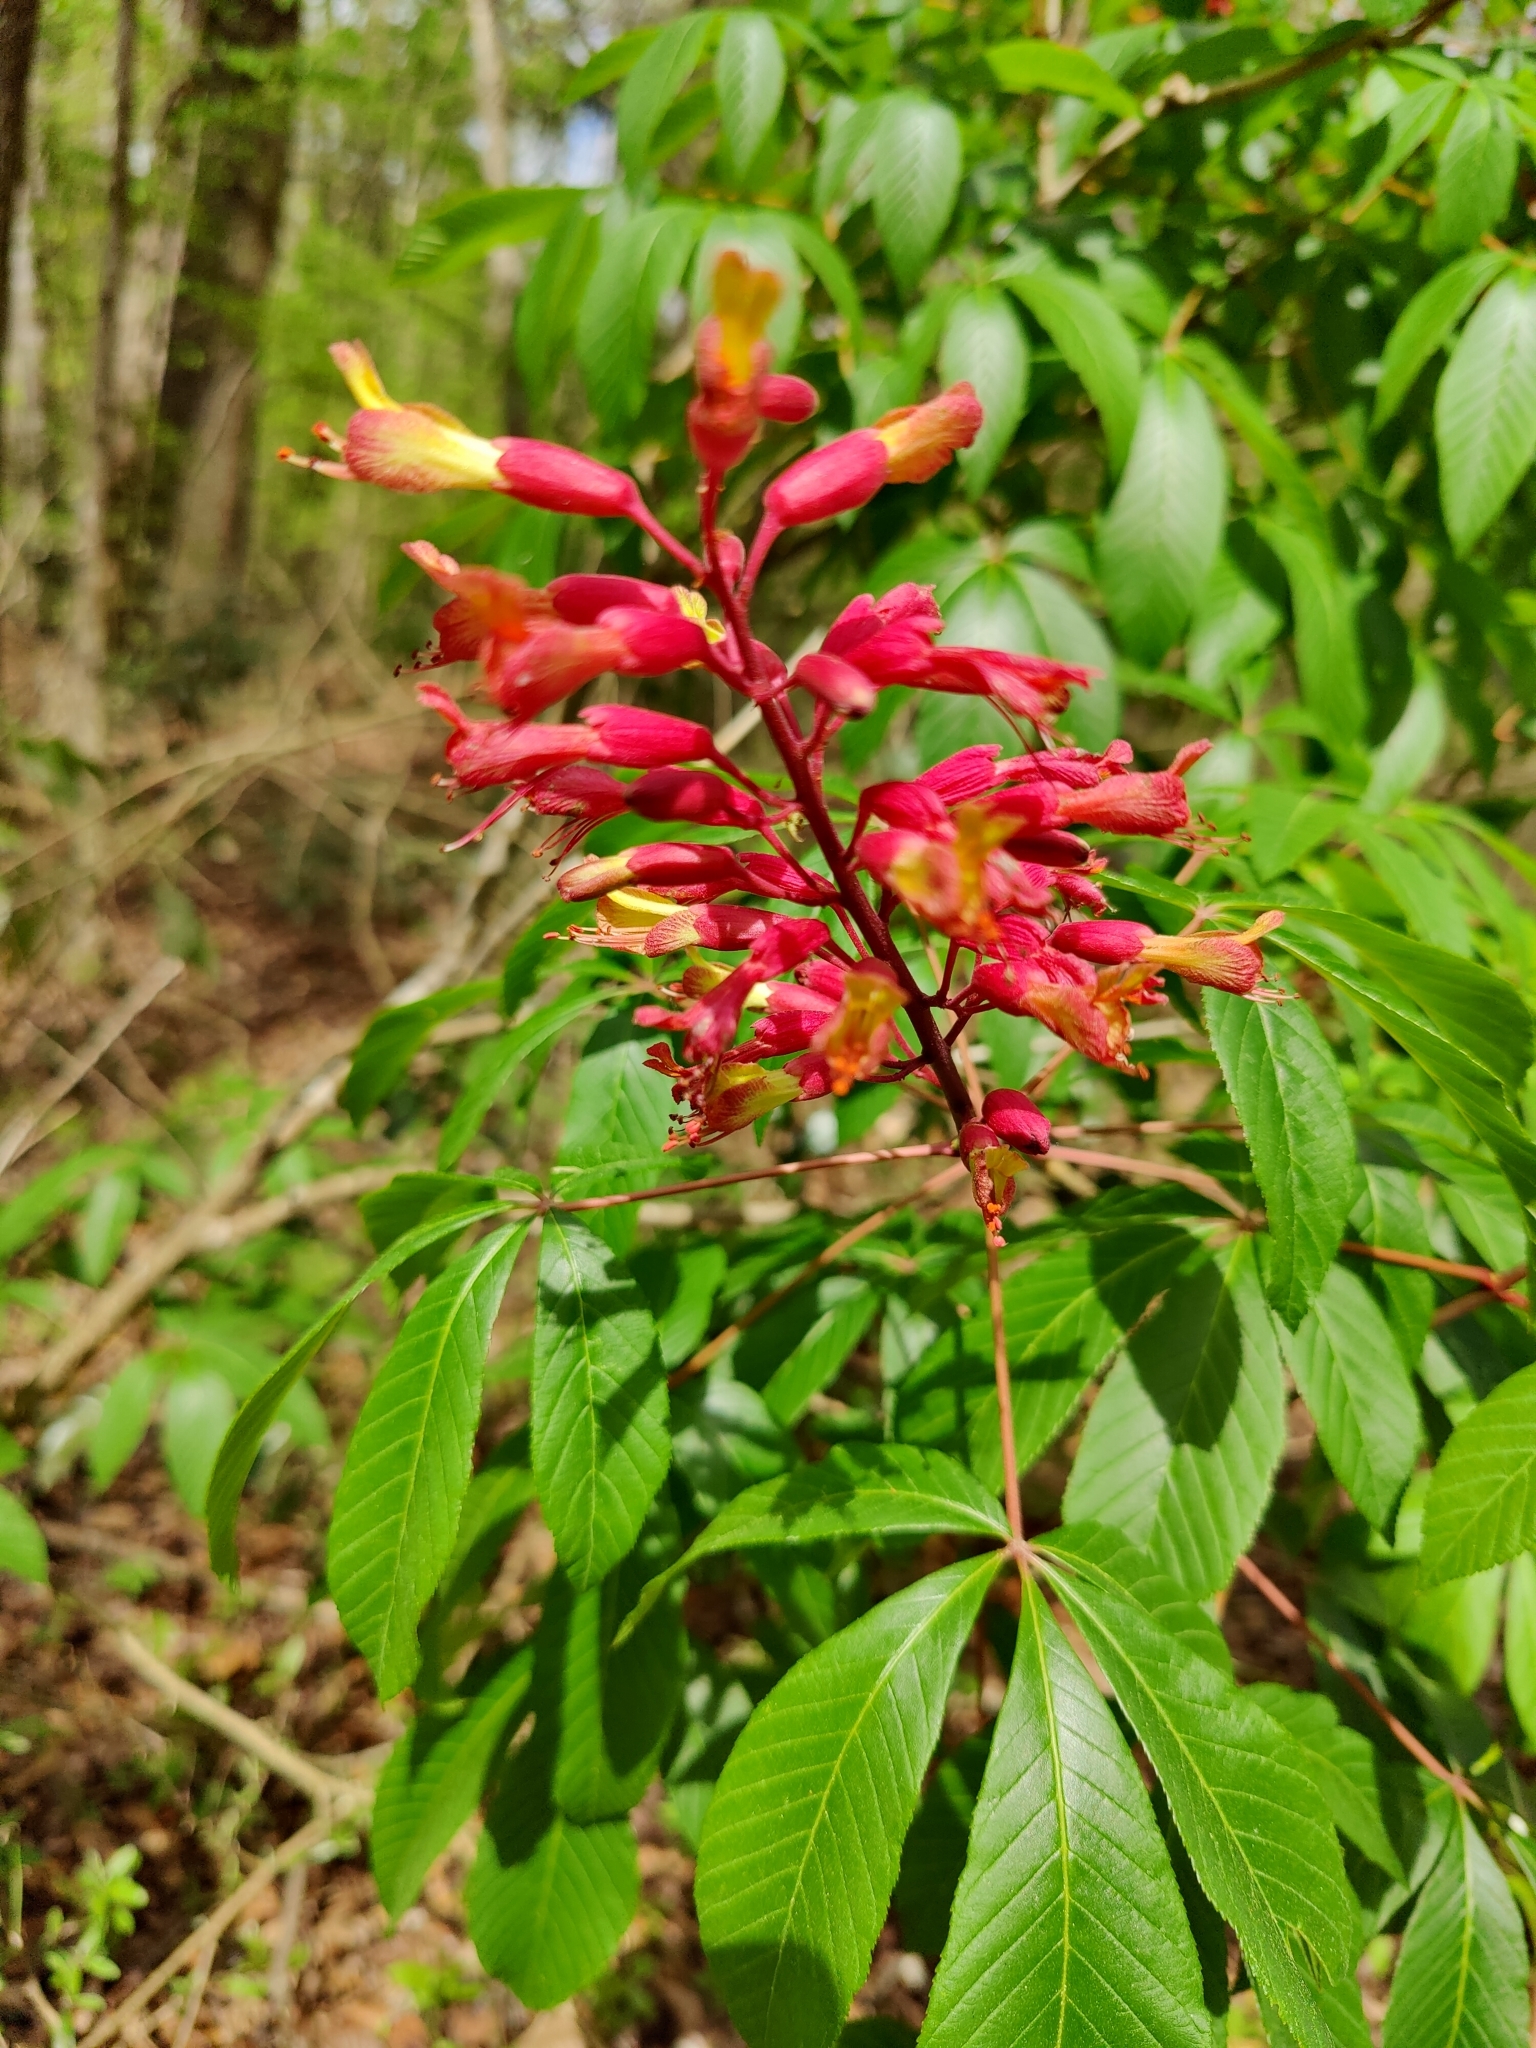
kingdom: Plantae
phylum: Tracheophyta
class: Magnoliopsida
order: Sapindales
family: Sapindaceae
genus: Aesculus
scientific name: Aesculus pavia
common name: Red buckeye
